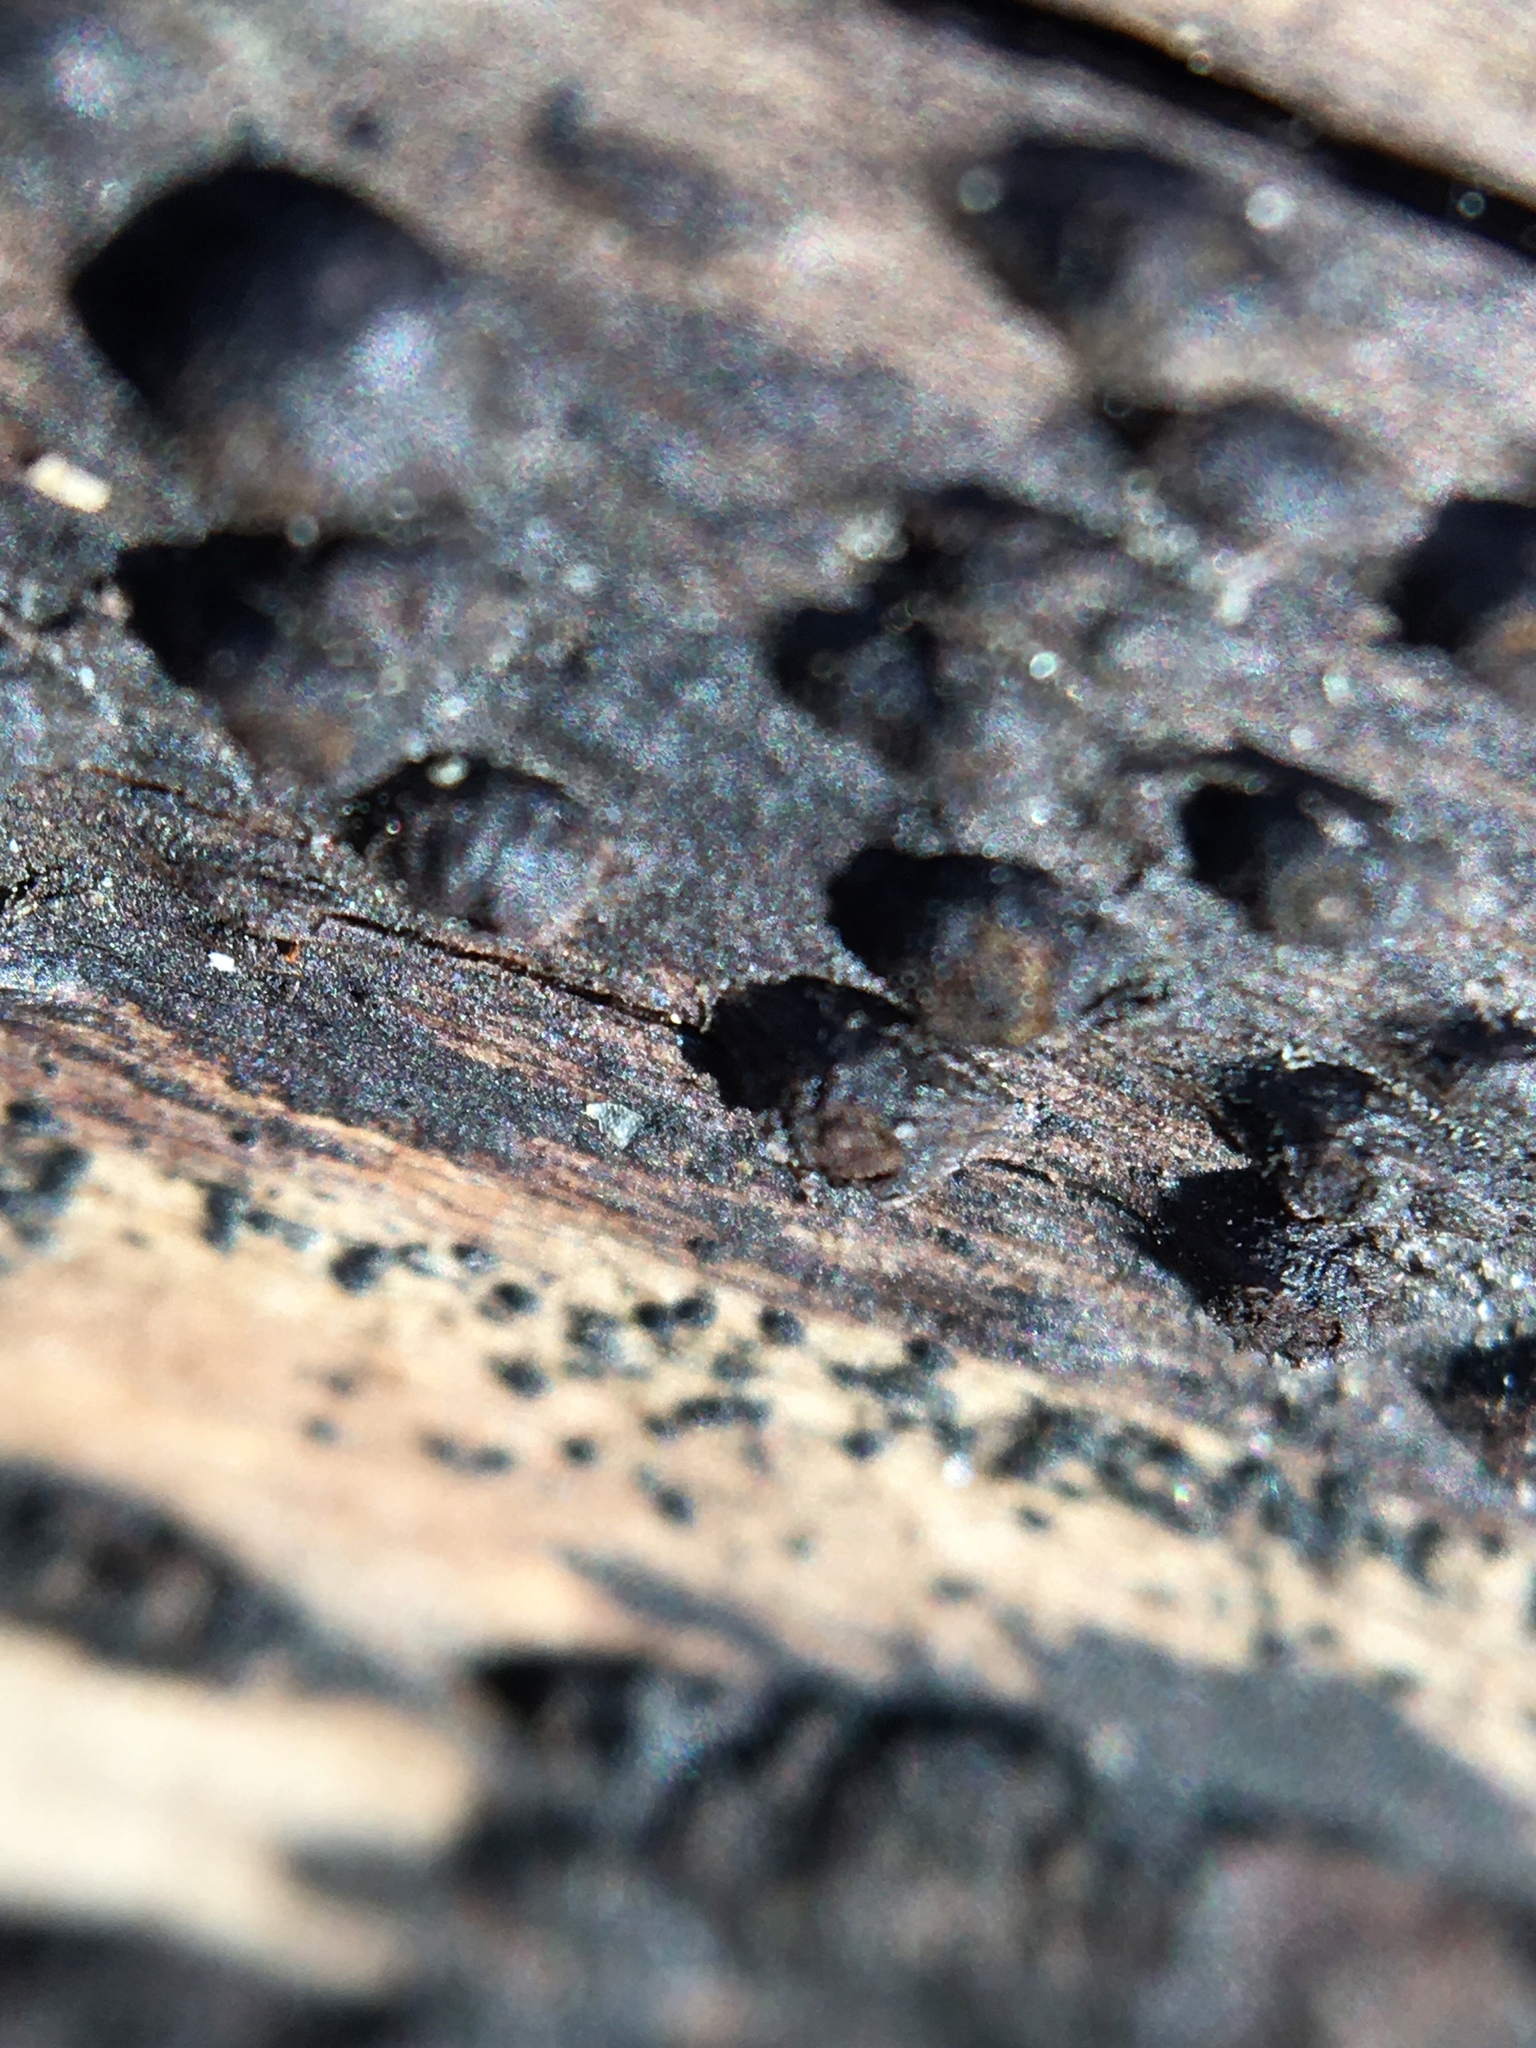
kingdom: Fungi
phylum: Ascomycota
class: Sordariomycetes
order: Xylariales
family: Lopadostomataceae
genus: Creosphaeria
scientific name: Creosphaeria sassafras
